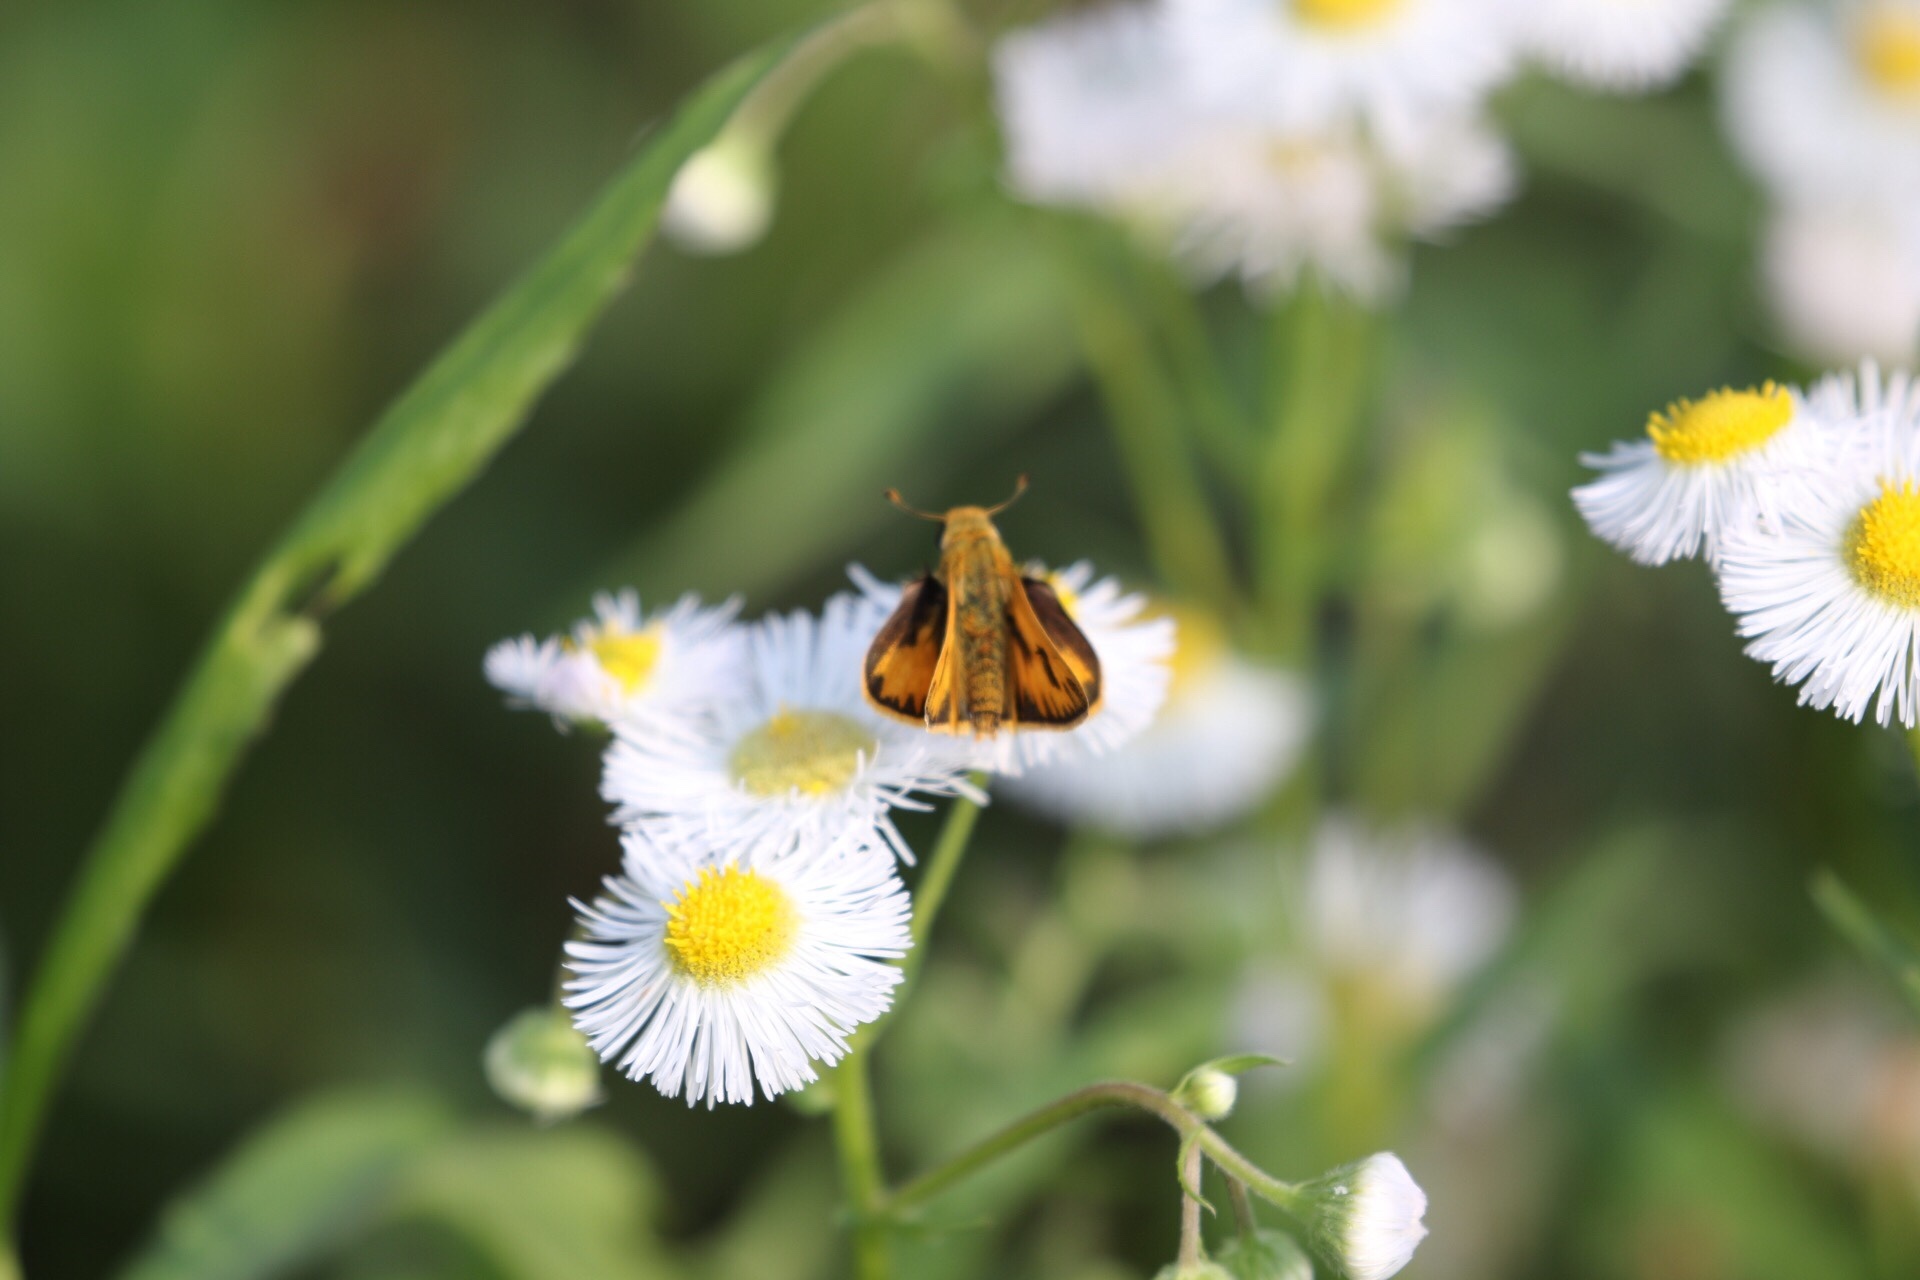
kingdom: Animalia
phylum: Arthropoda
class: Insecta
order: Lepidoptera
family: Hesperiidae
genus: Hylephila
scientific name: Hylephila phyleus
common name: Fiery skipper
